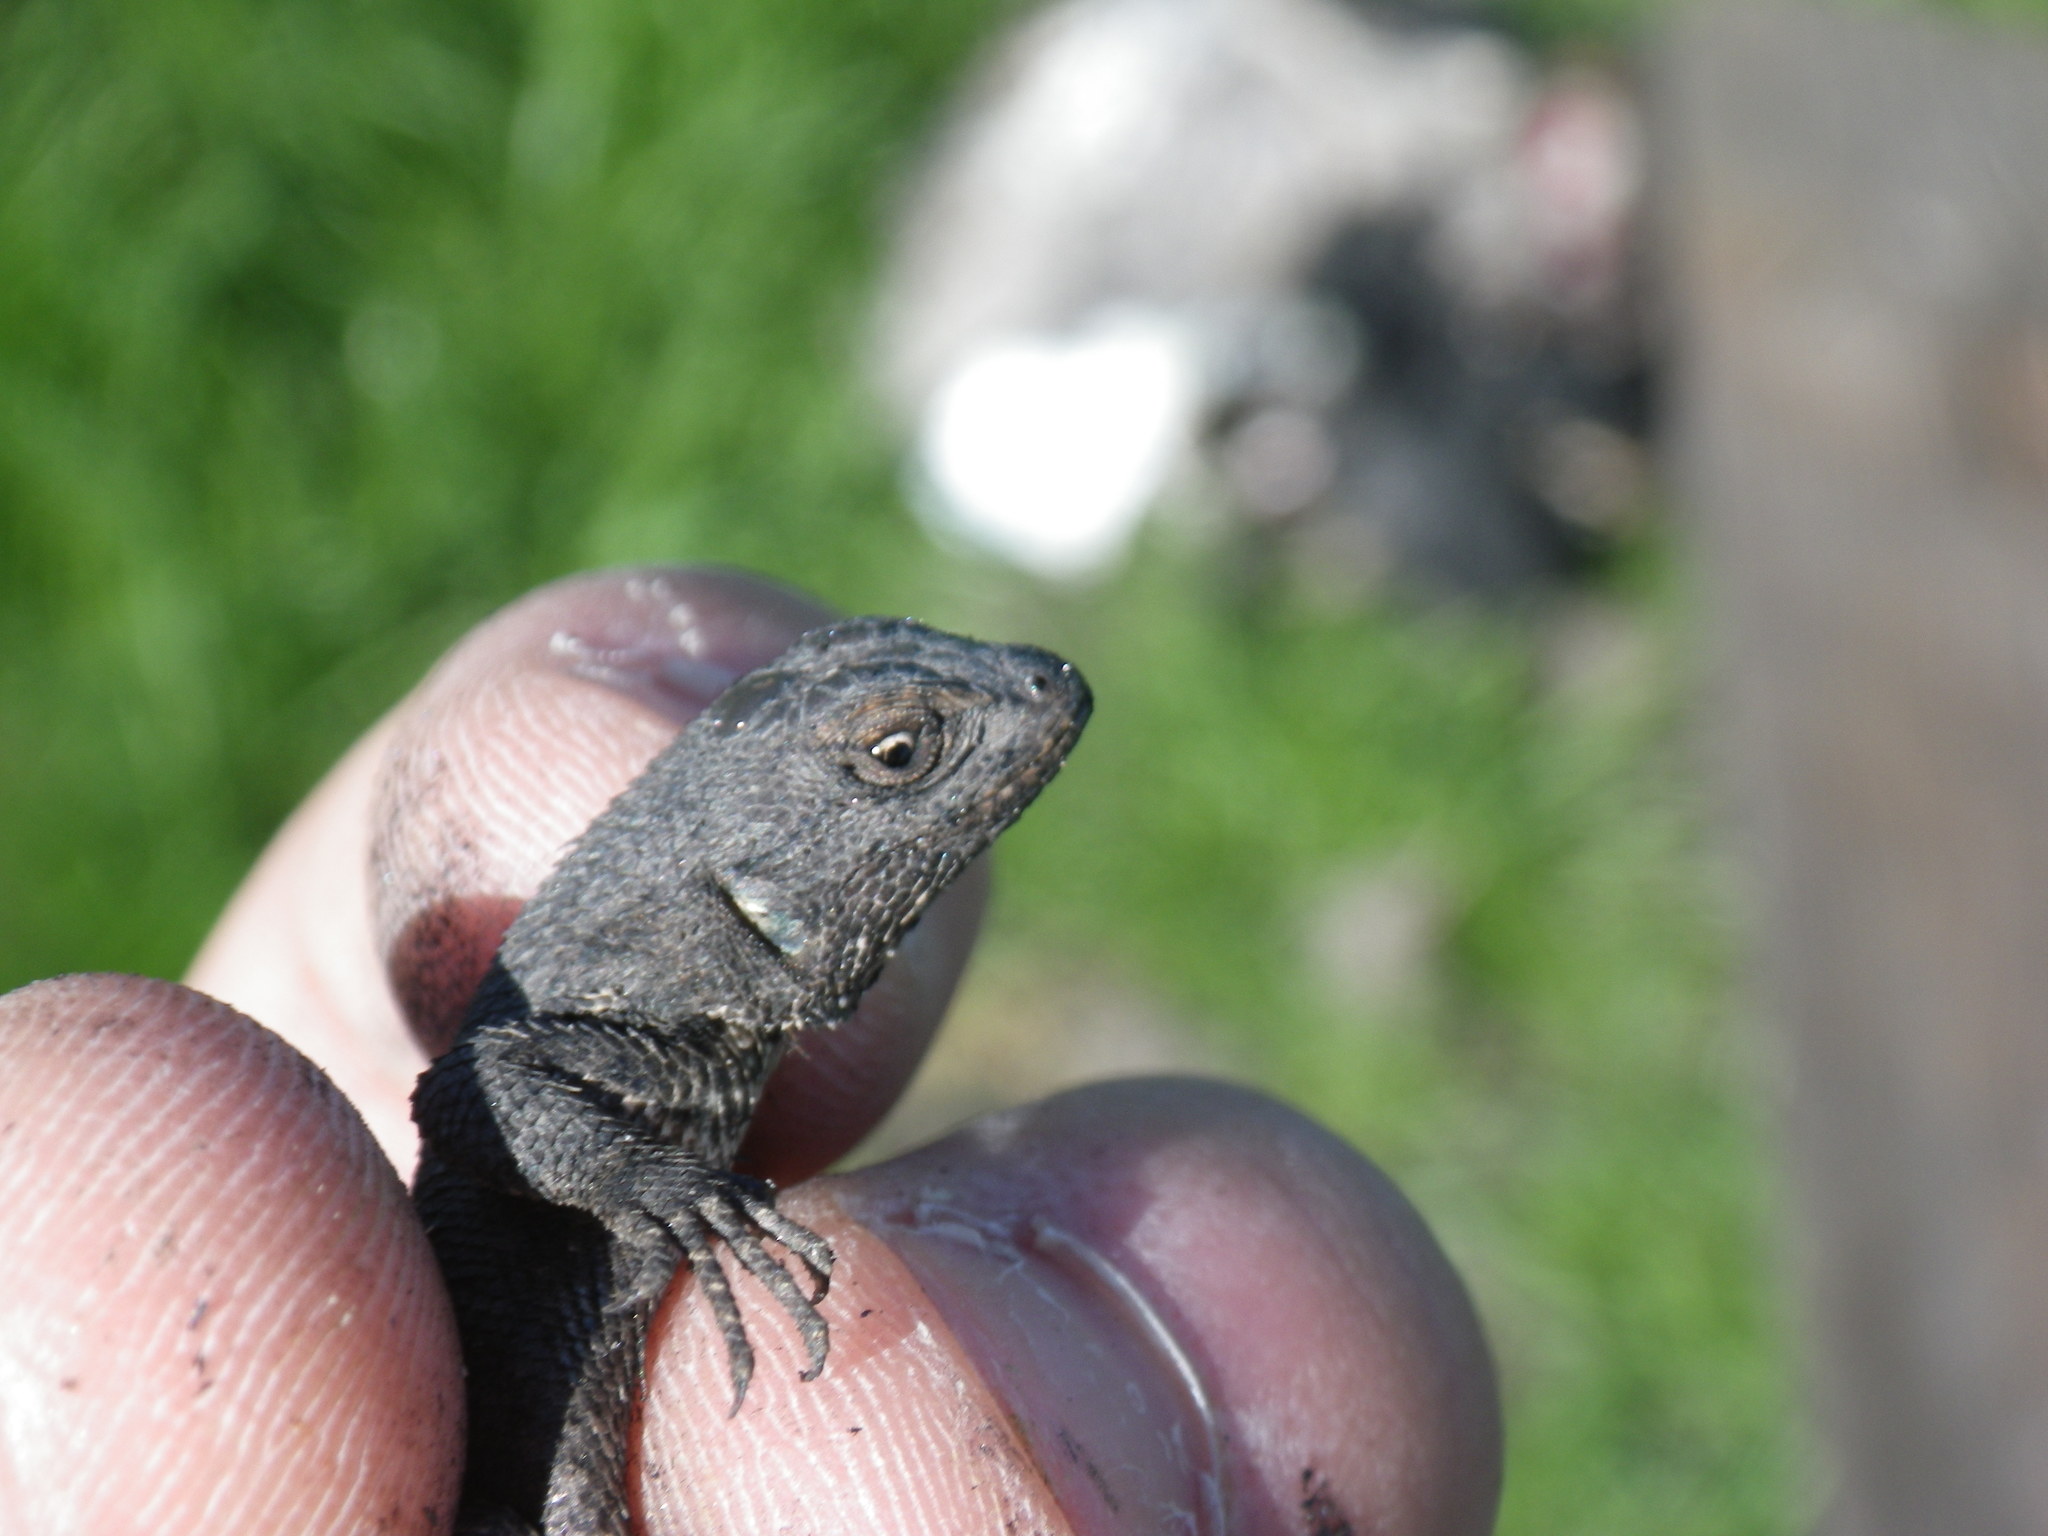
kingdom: Animalia
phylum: Chordata
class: Squamata
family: Phrynosomatidae
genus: Sceloporus
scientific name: Sceloporus occidentalis
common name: Western fence lizard
